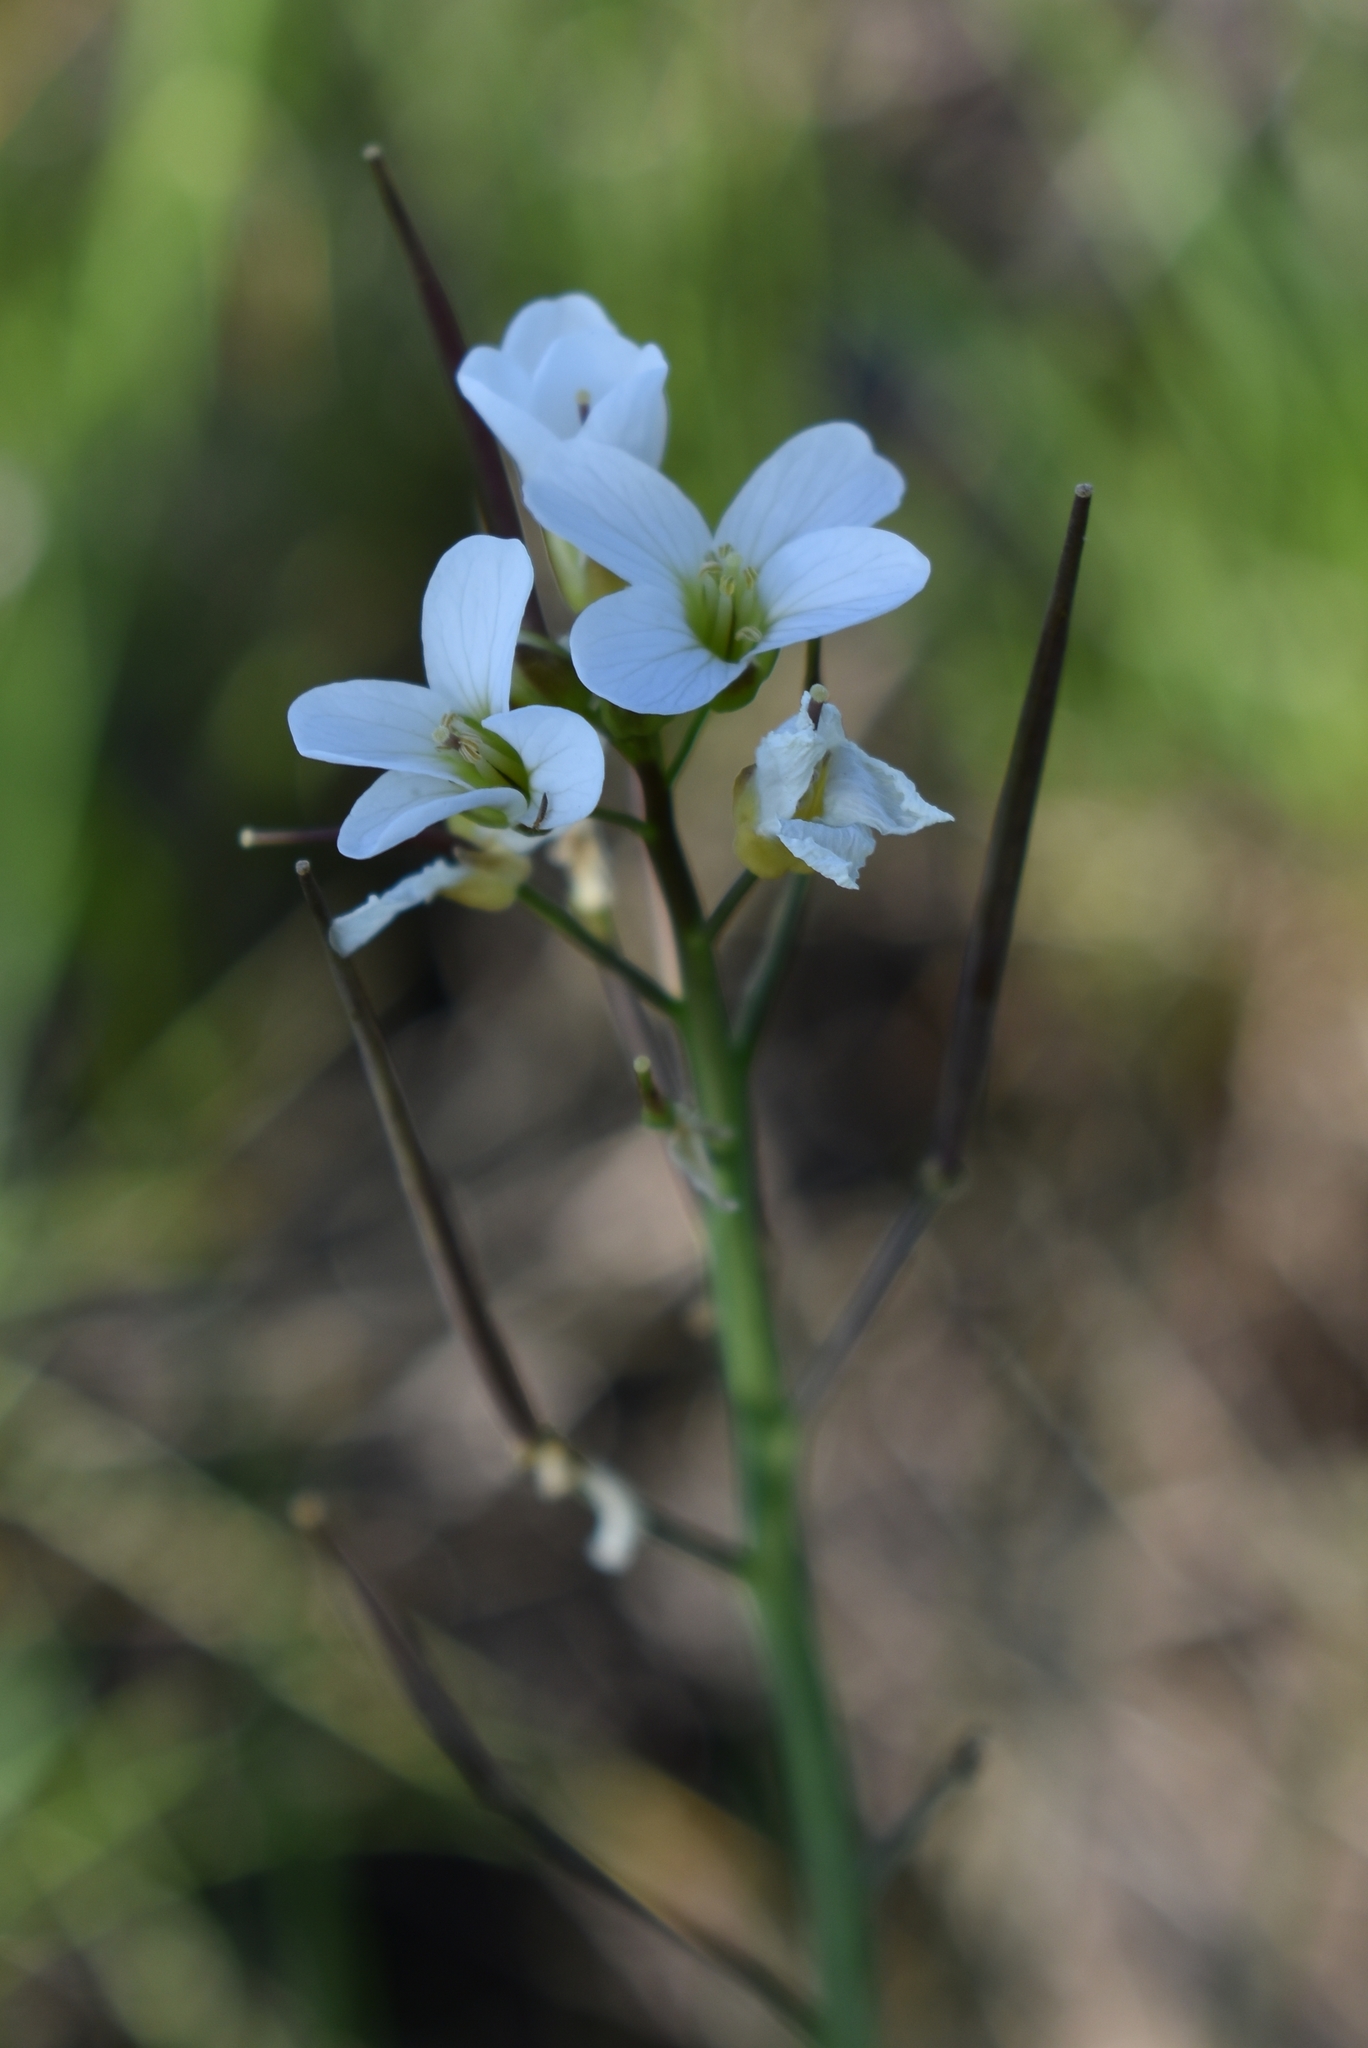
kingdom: Plantae
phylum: Tracheophyta
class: Magnoliopsida
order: Brassicales
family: Brassicaceae
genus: Cardamine
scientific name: Cardamine penduliflora
